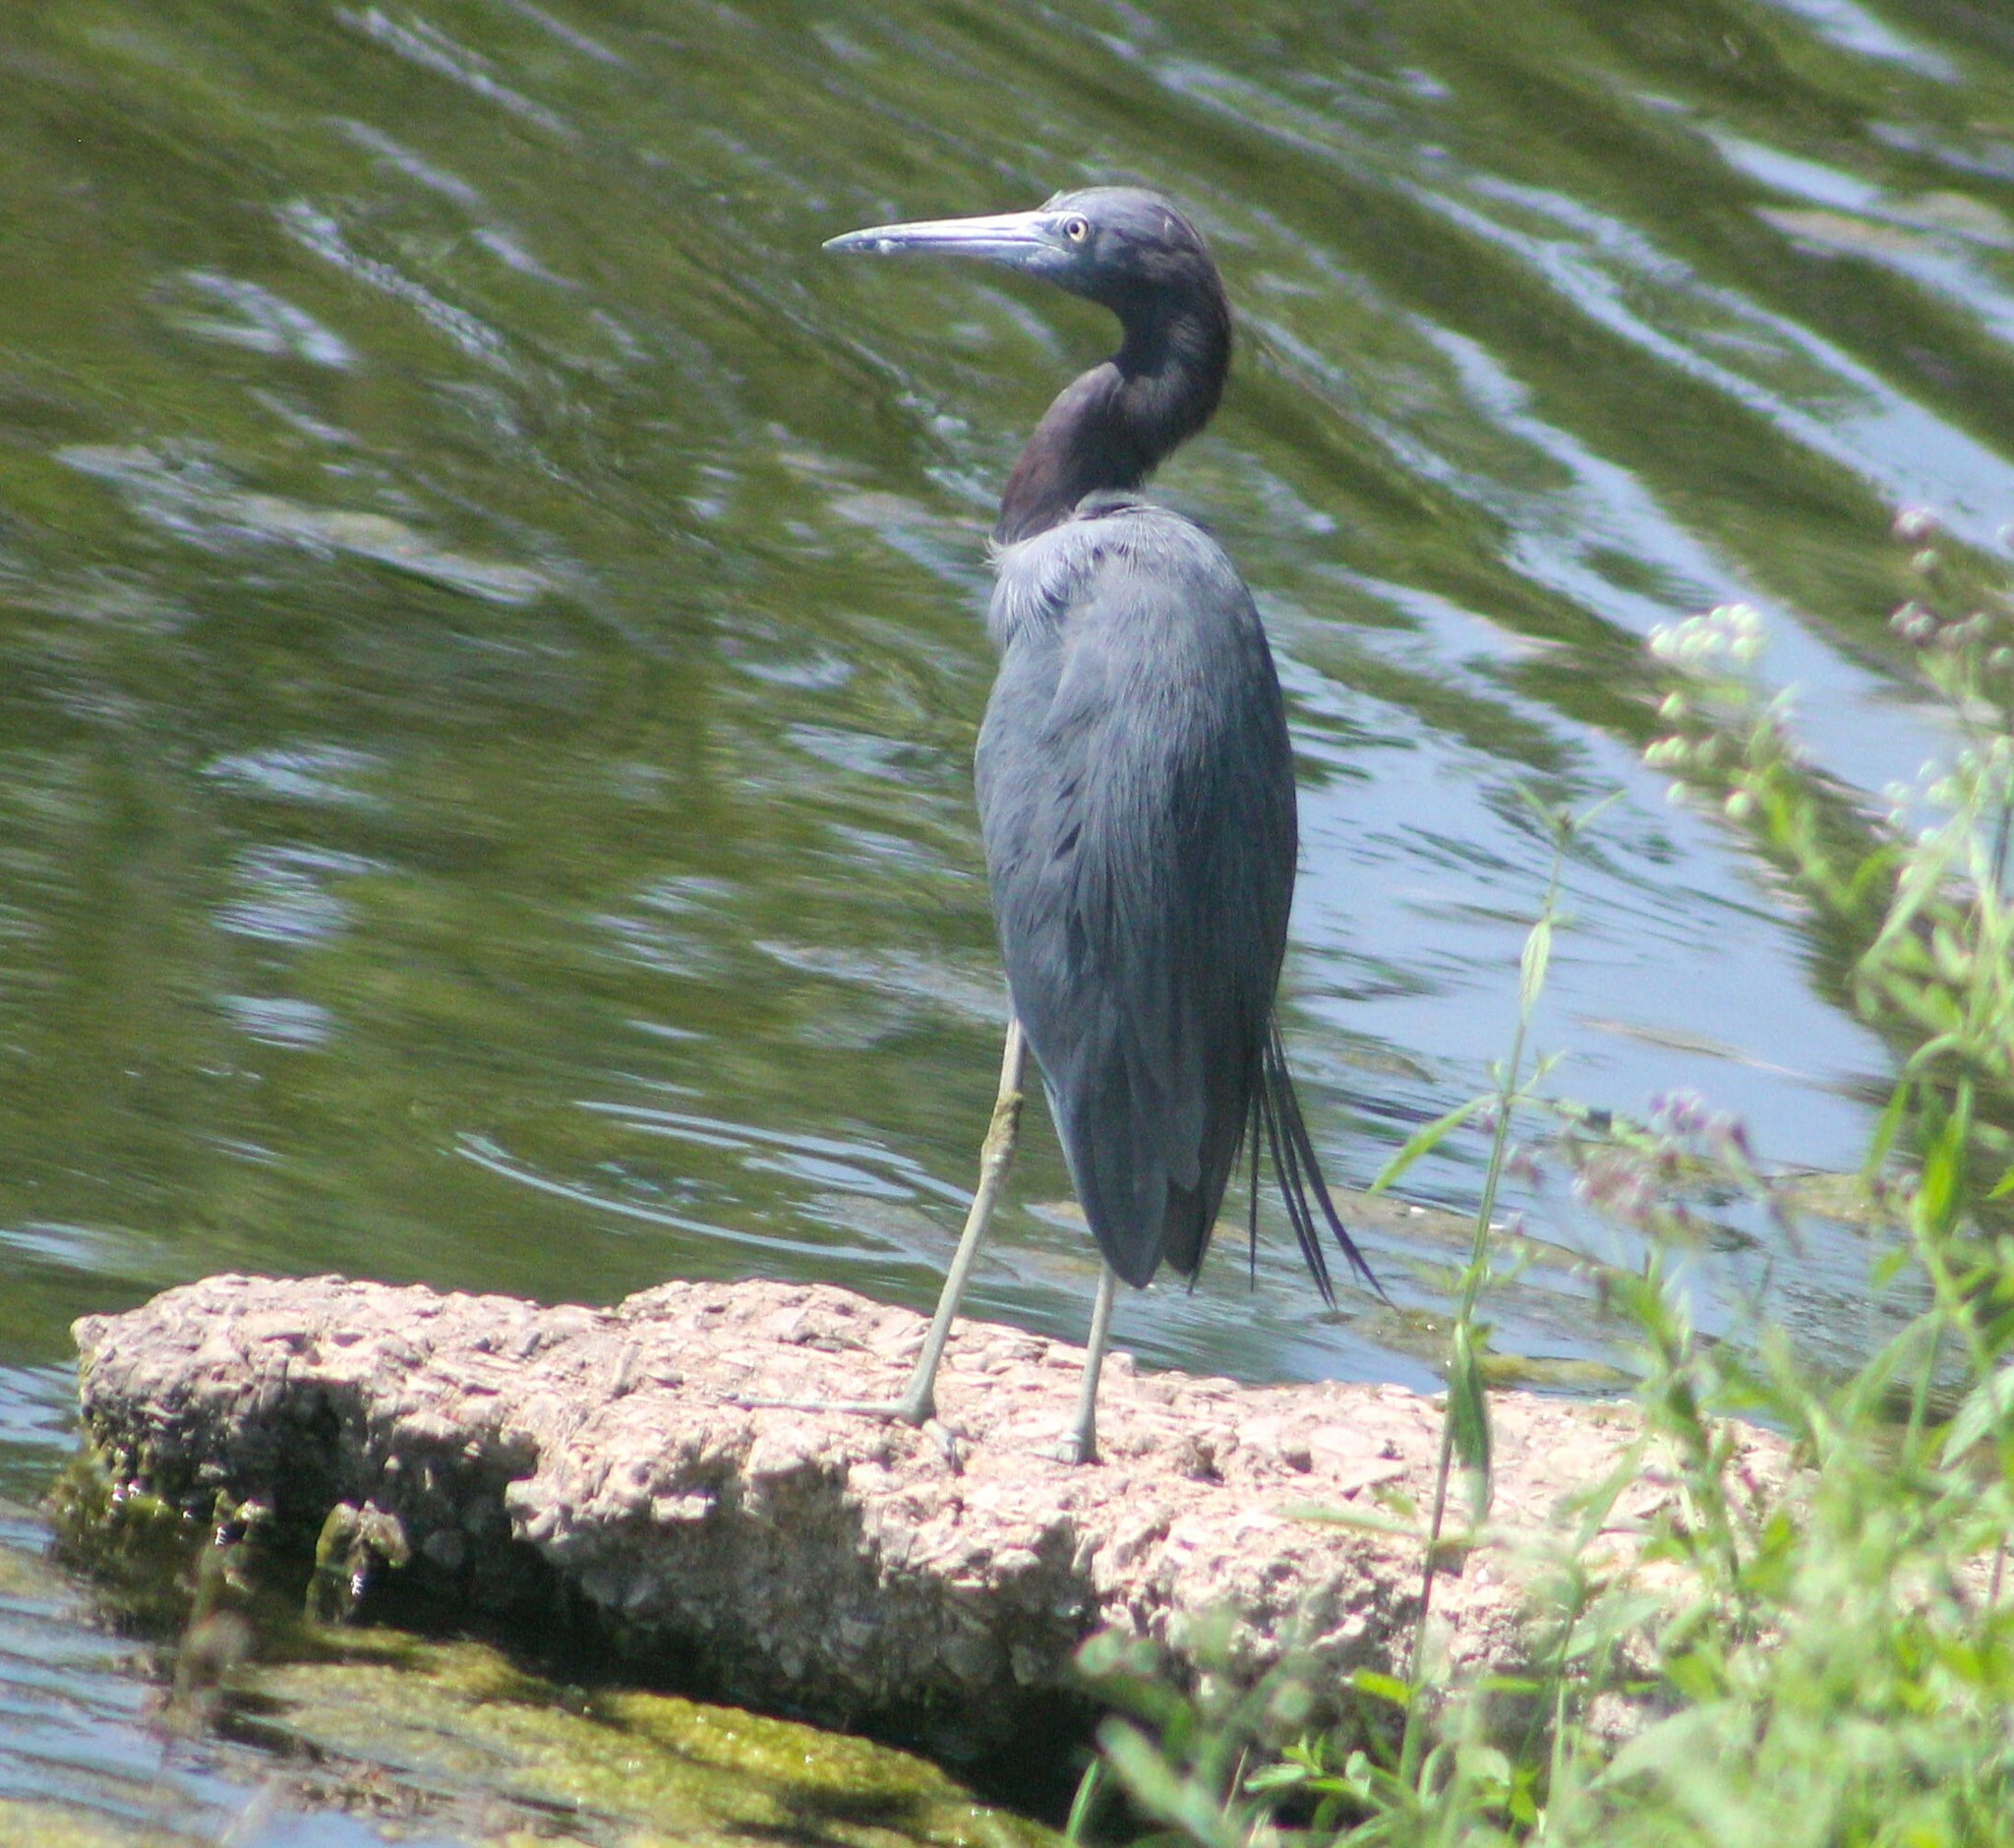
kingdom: Animalia
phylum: Chordata
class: Aves
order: Pelecaniformes
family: Ardeidae
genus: Egretta
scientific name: Egretta caerulea
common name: Little blue heron
